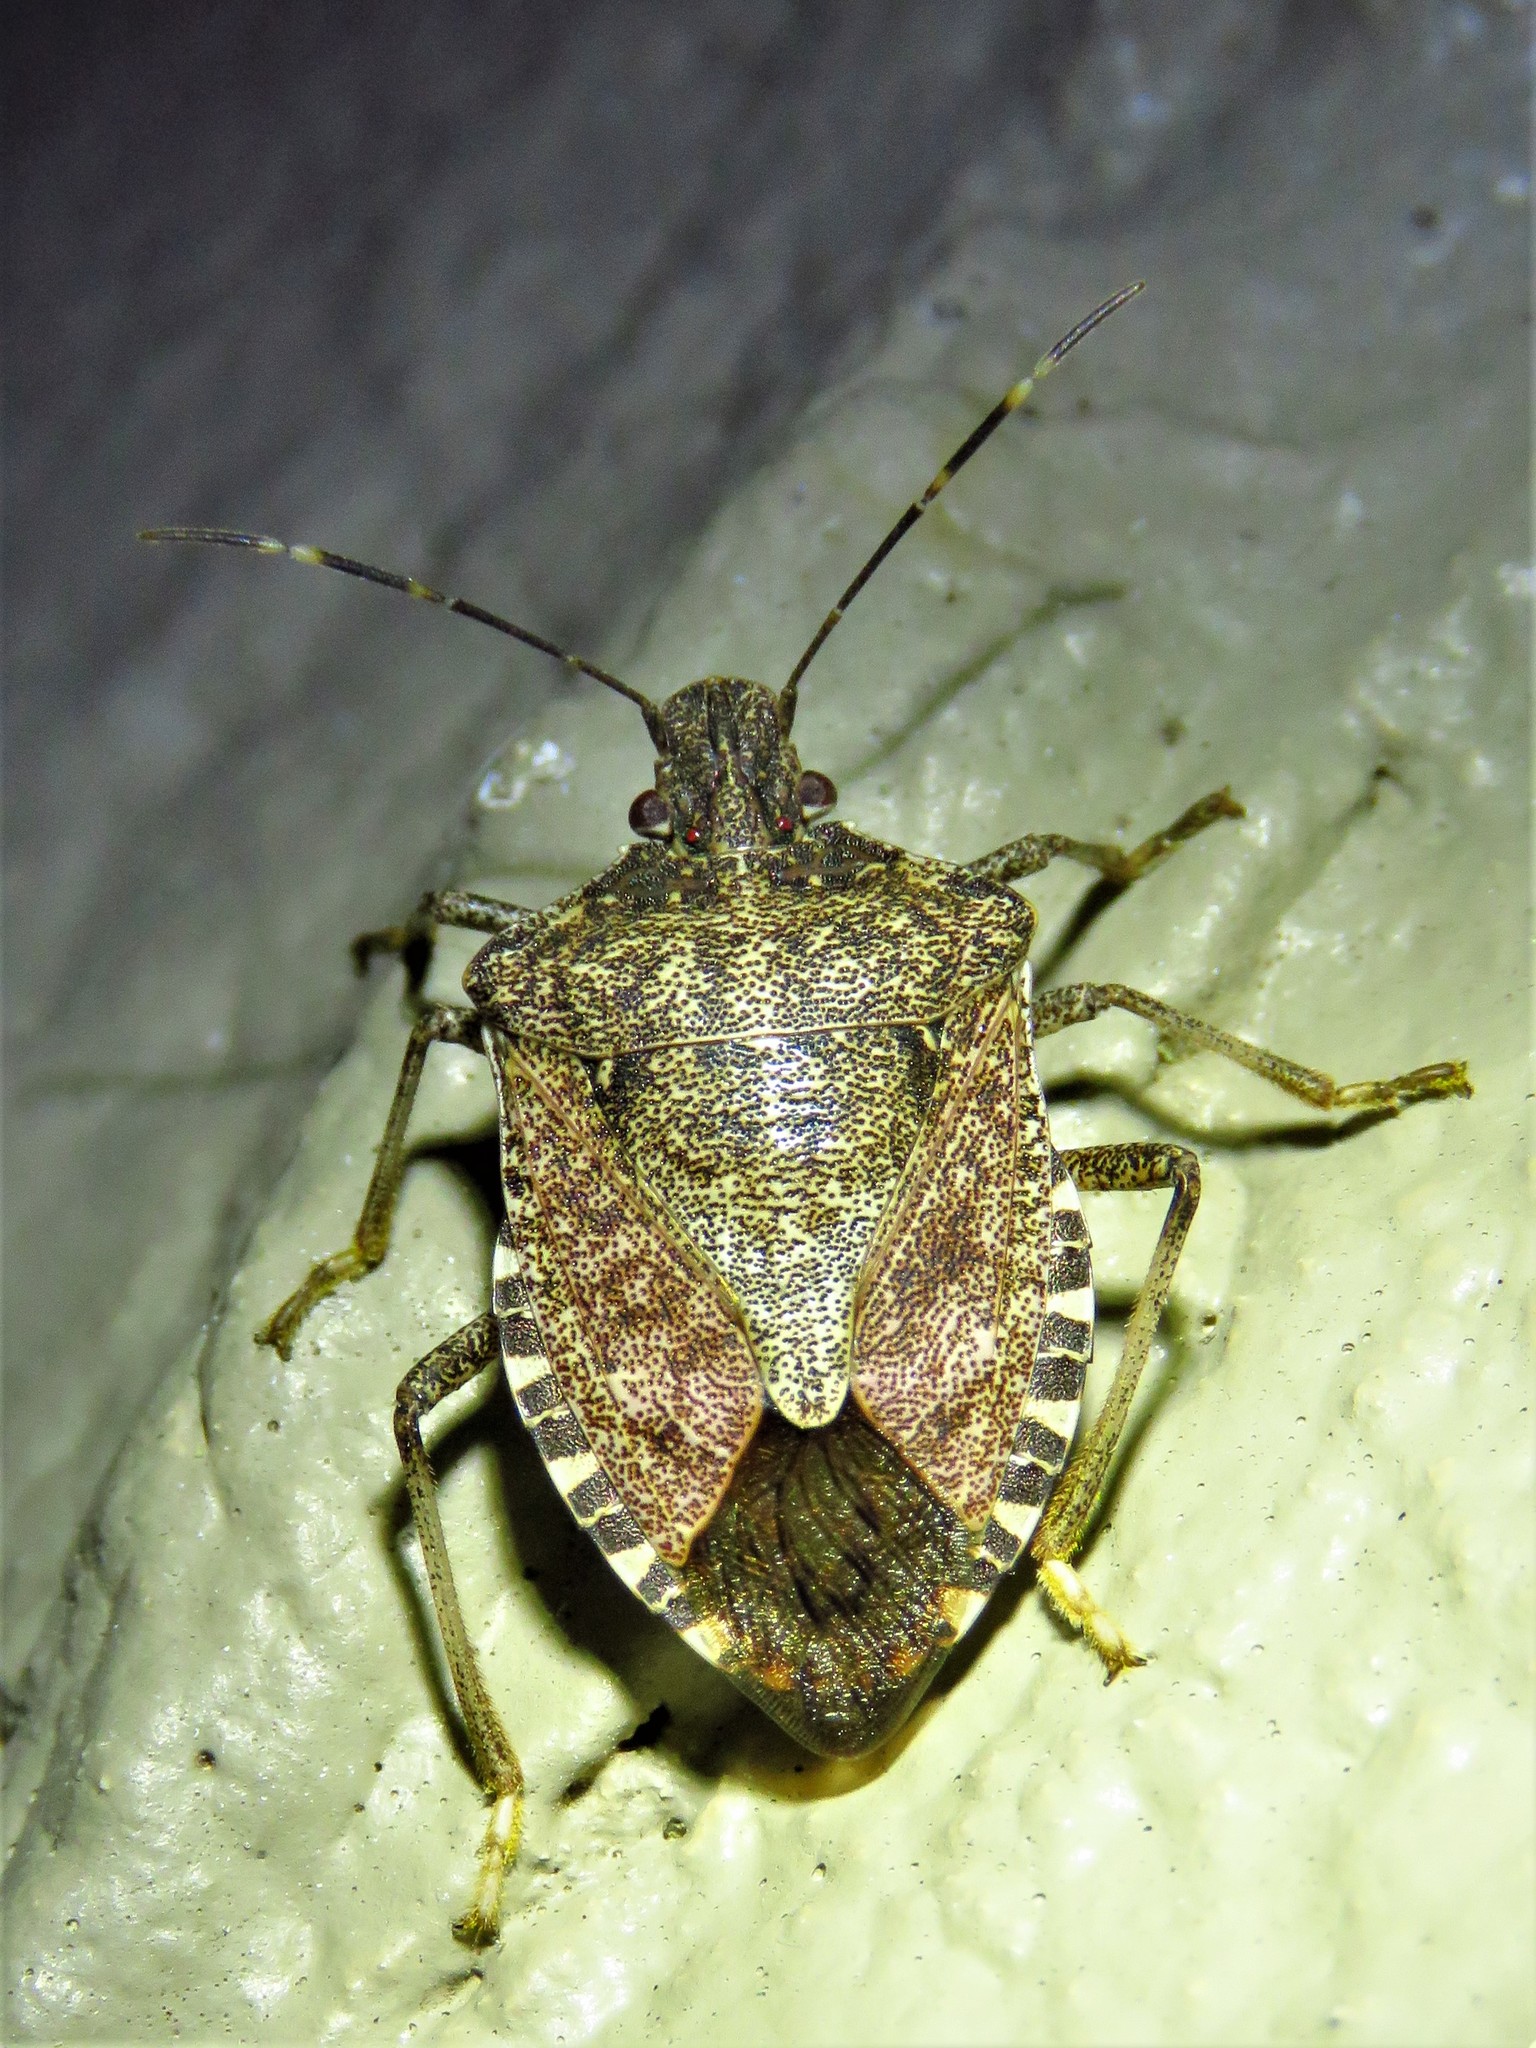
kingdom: Animalia
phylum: Arthropoda
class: Insecta
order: Hemiptera
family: Pentatomidae
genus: Halyomorpha
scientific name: Halyomorpha halys
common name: Brown marmorated stink bug
